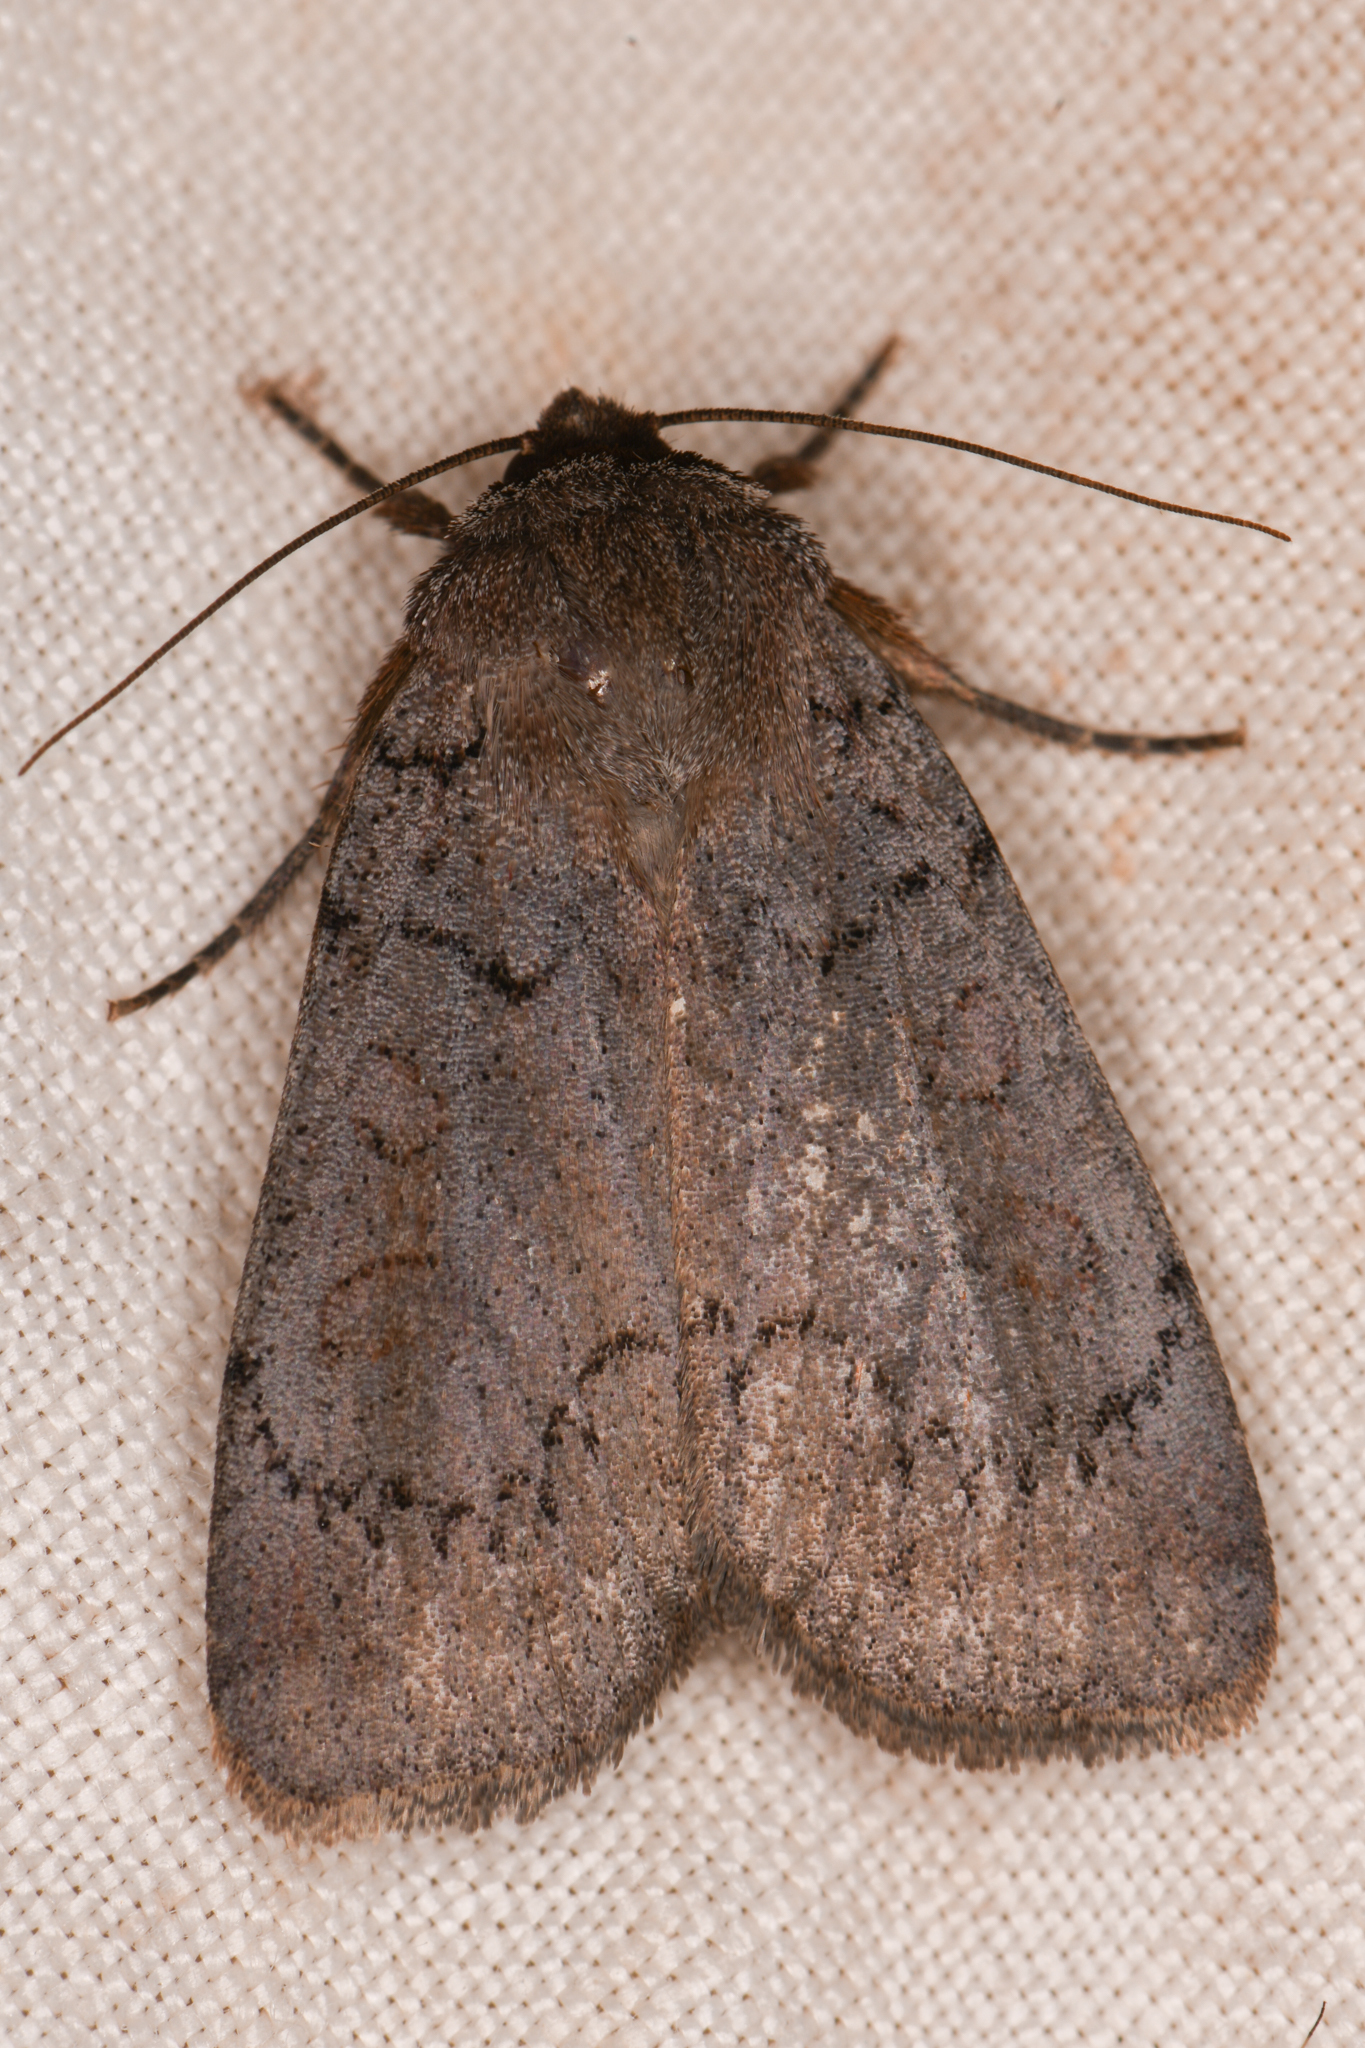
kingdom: Animalia
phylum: Arthropoda
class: Insecta
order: Lepidoptera
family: Noctuidae
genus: Graphiphora
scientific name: Graphiphora augur
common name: Double dart
